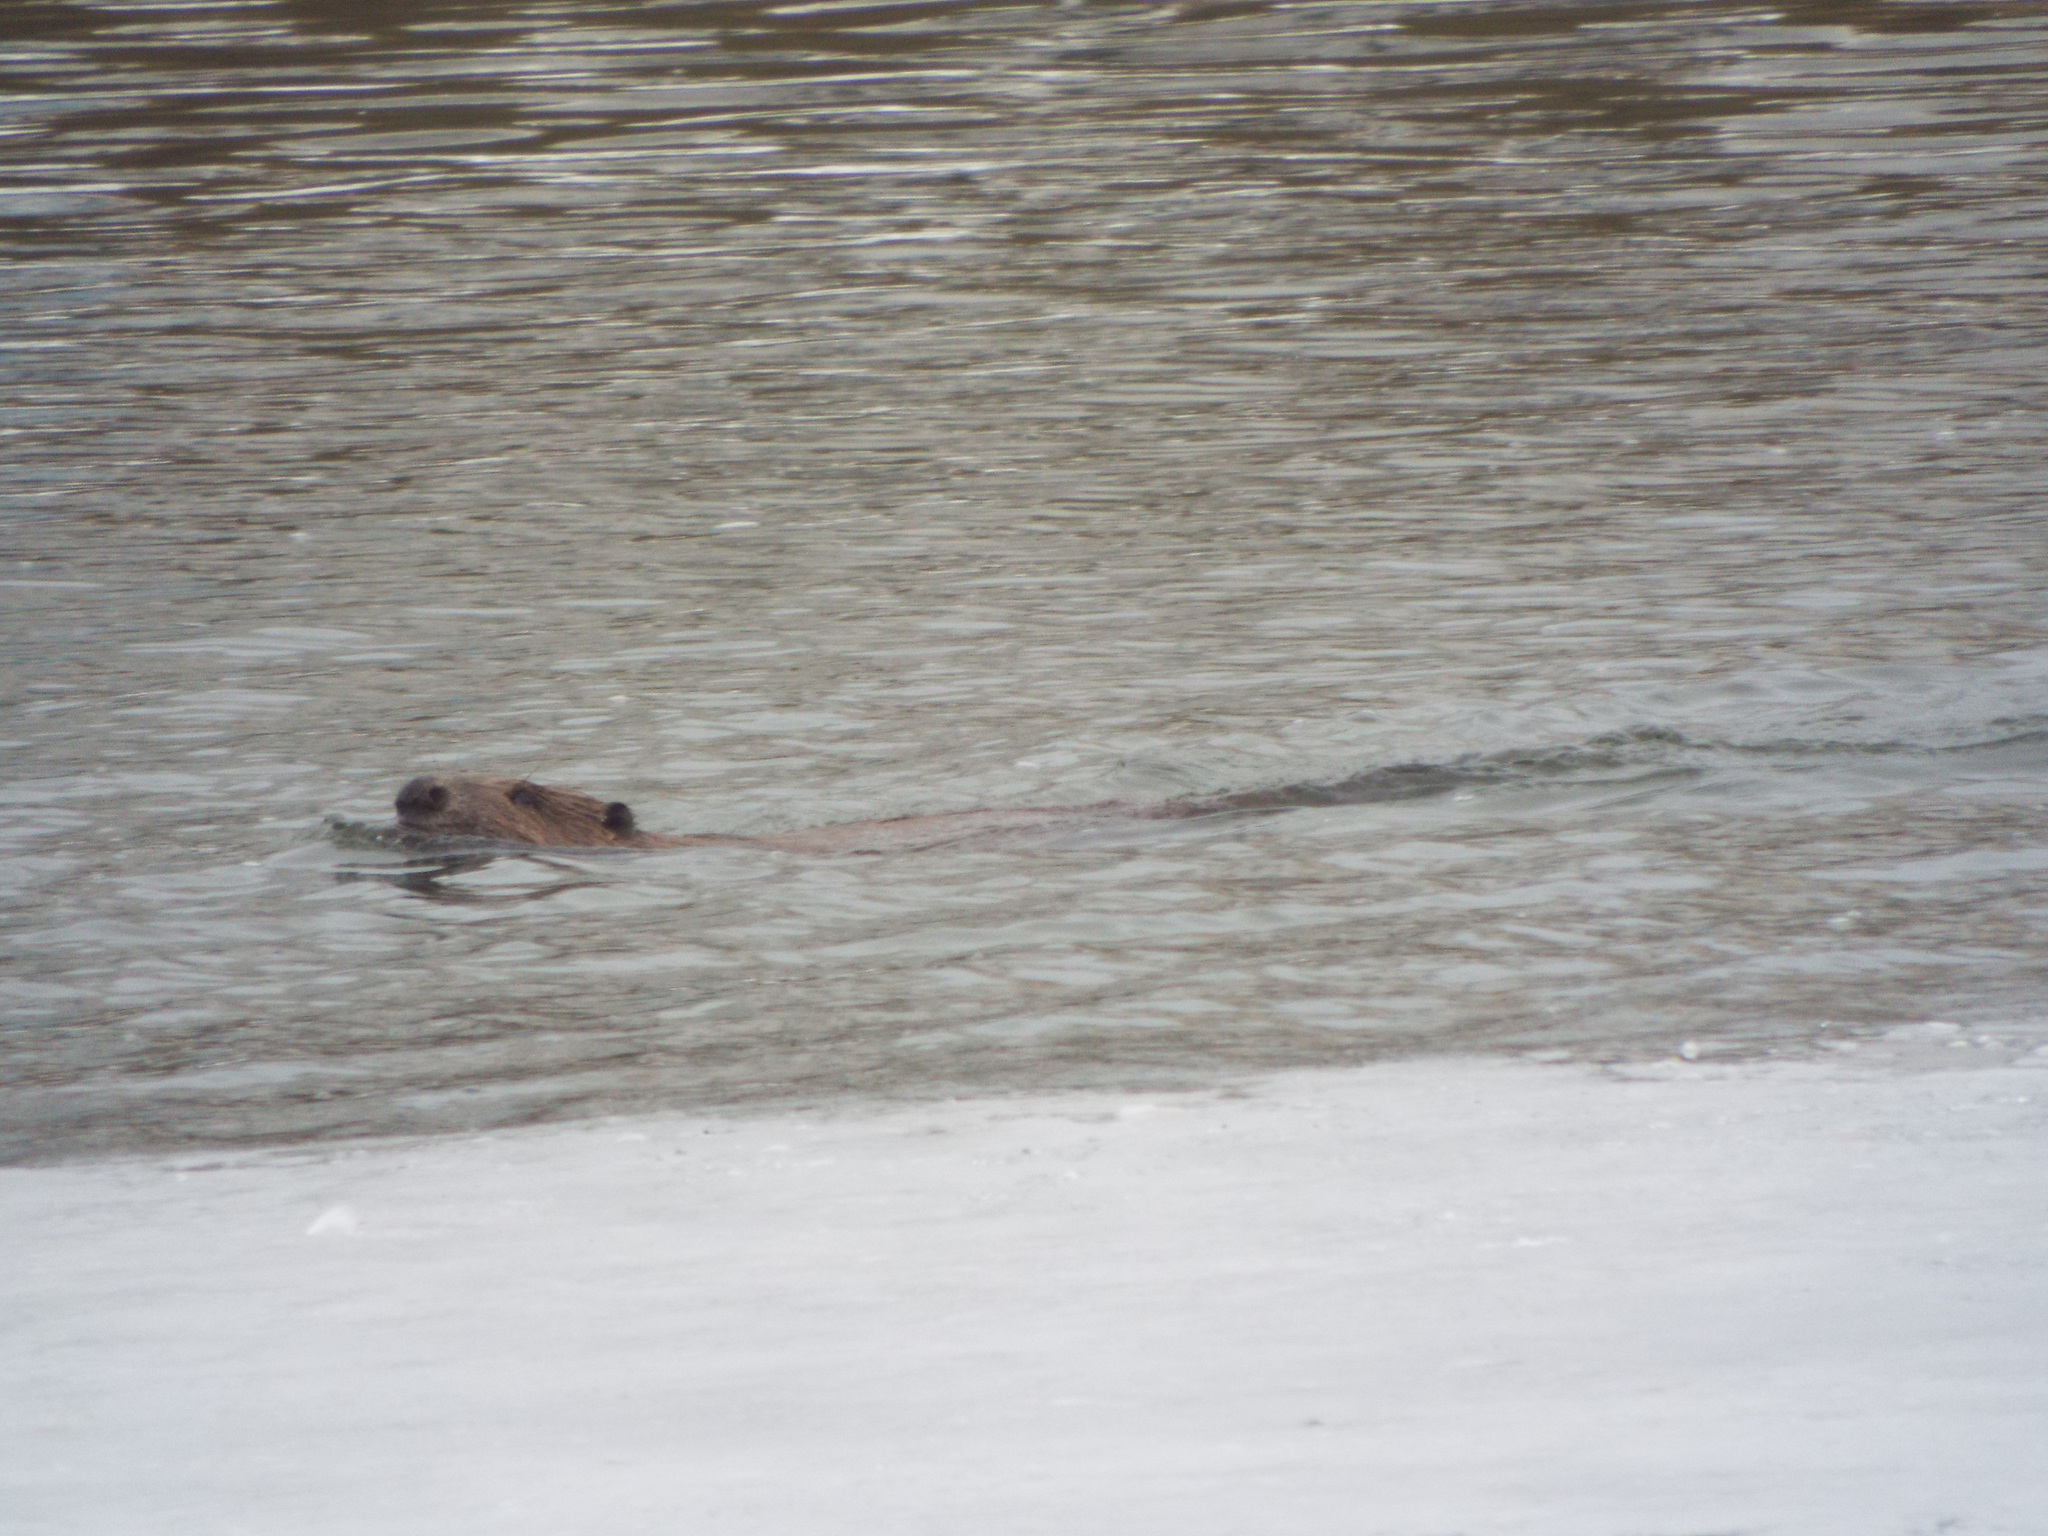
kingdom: Animalia
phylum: Chordata
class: Mammalia
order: Rodentia
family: Castoridae
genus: Castor
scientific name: Castor fiber
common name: Eurasian beaver
